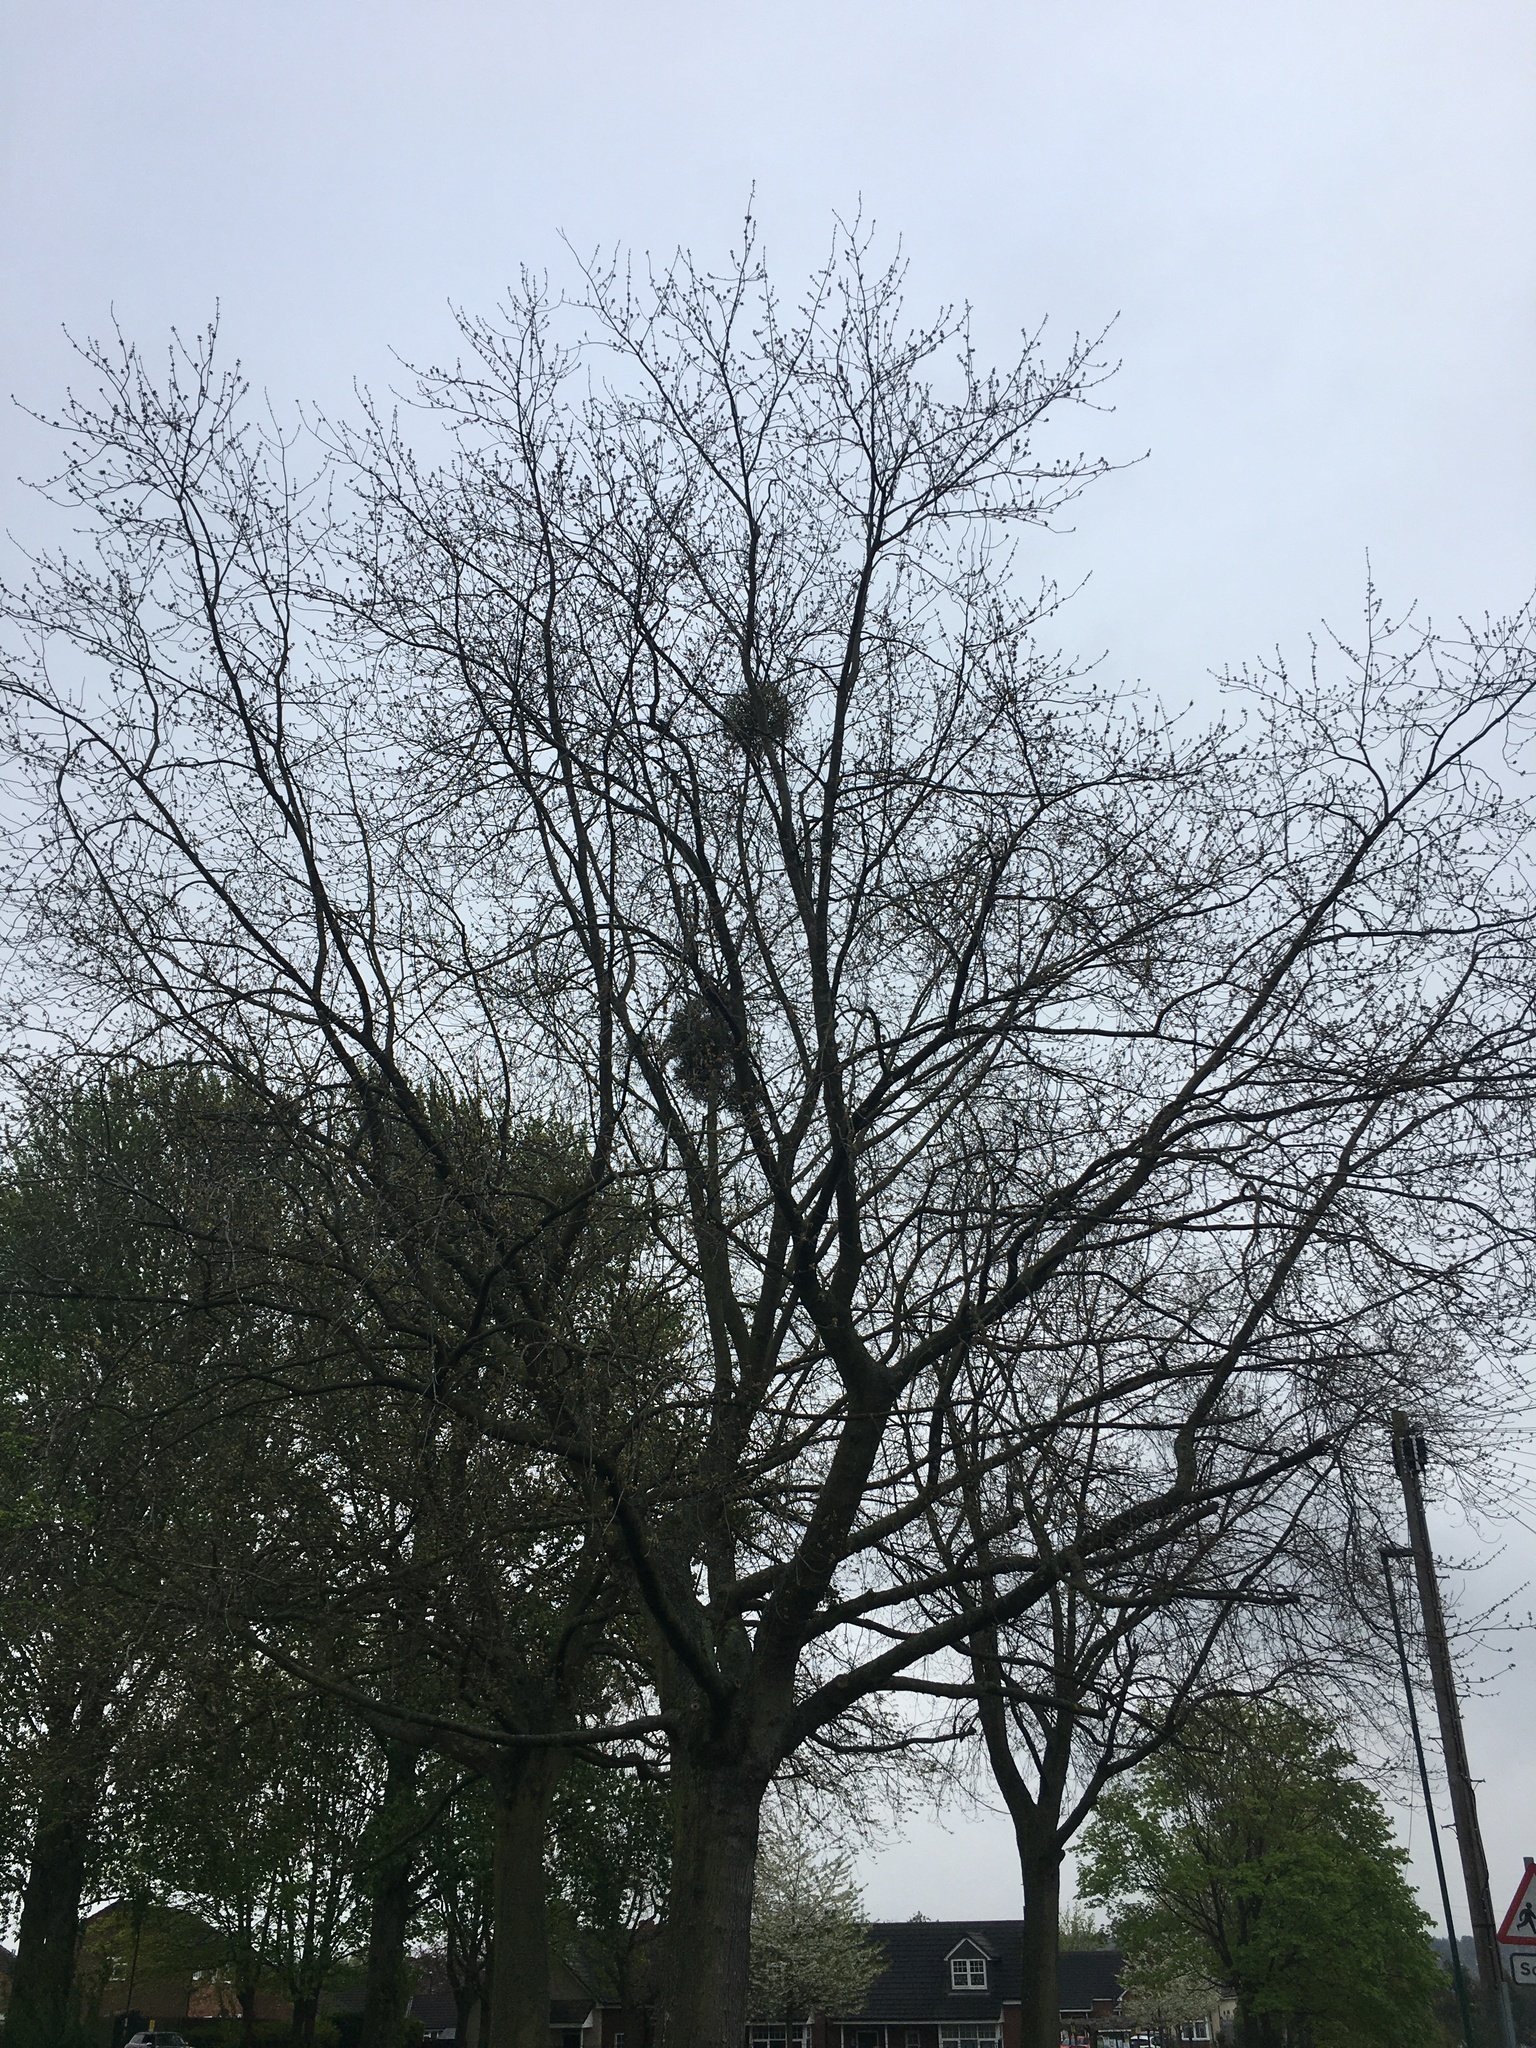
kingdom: Plantae
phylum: Tracheophyta
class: Magnoliopsida
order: Santalales
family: Viscaceae
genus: Viscum
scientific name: Viscum album
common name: Mistletoe
